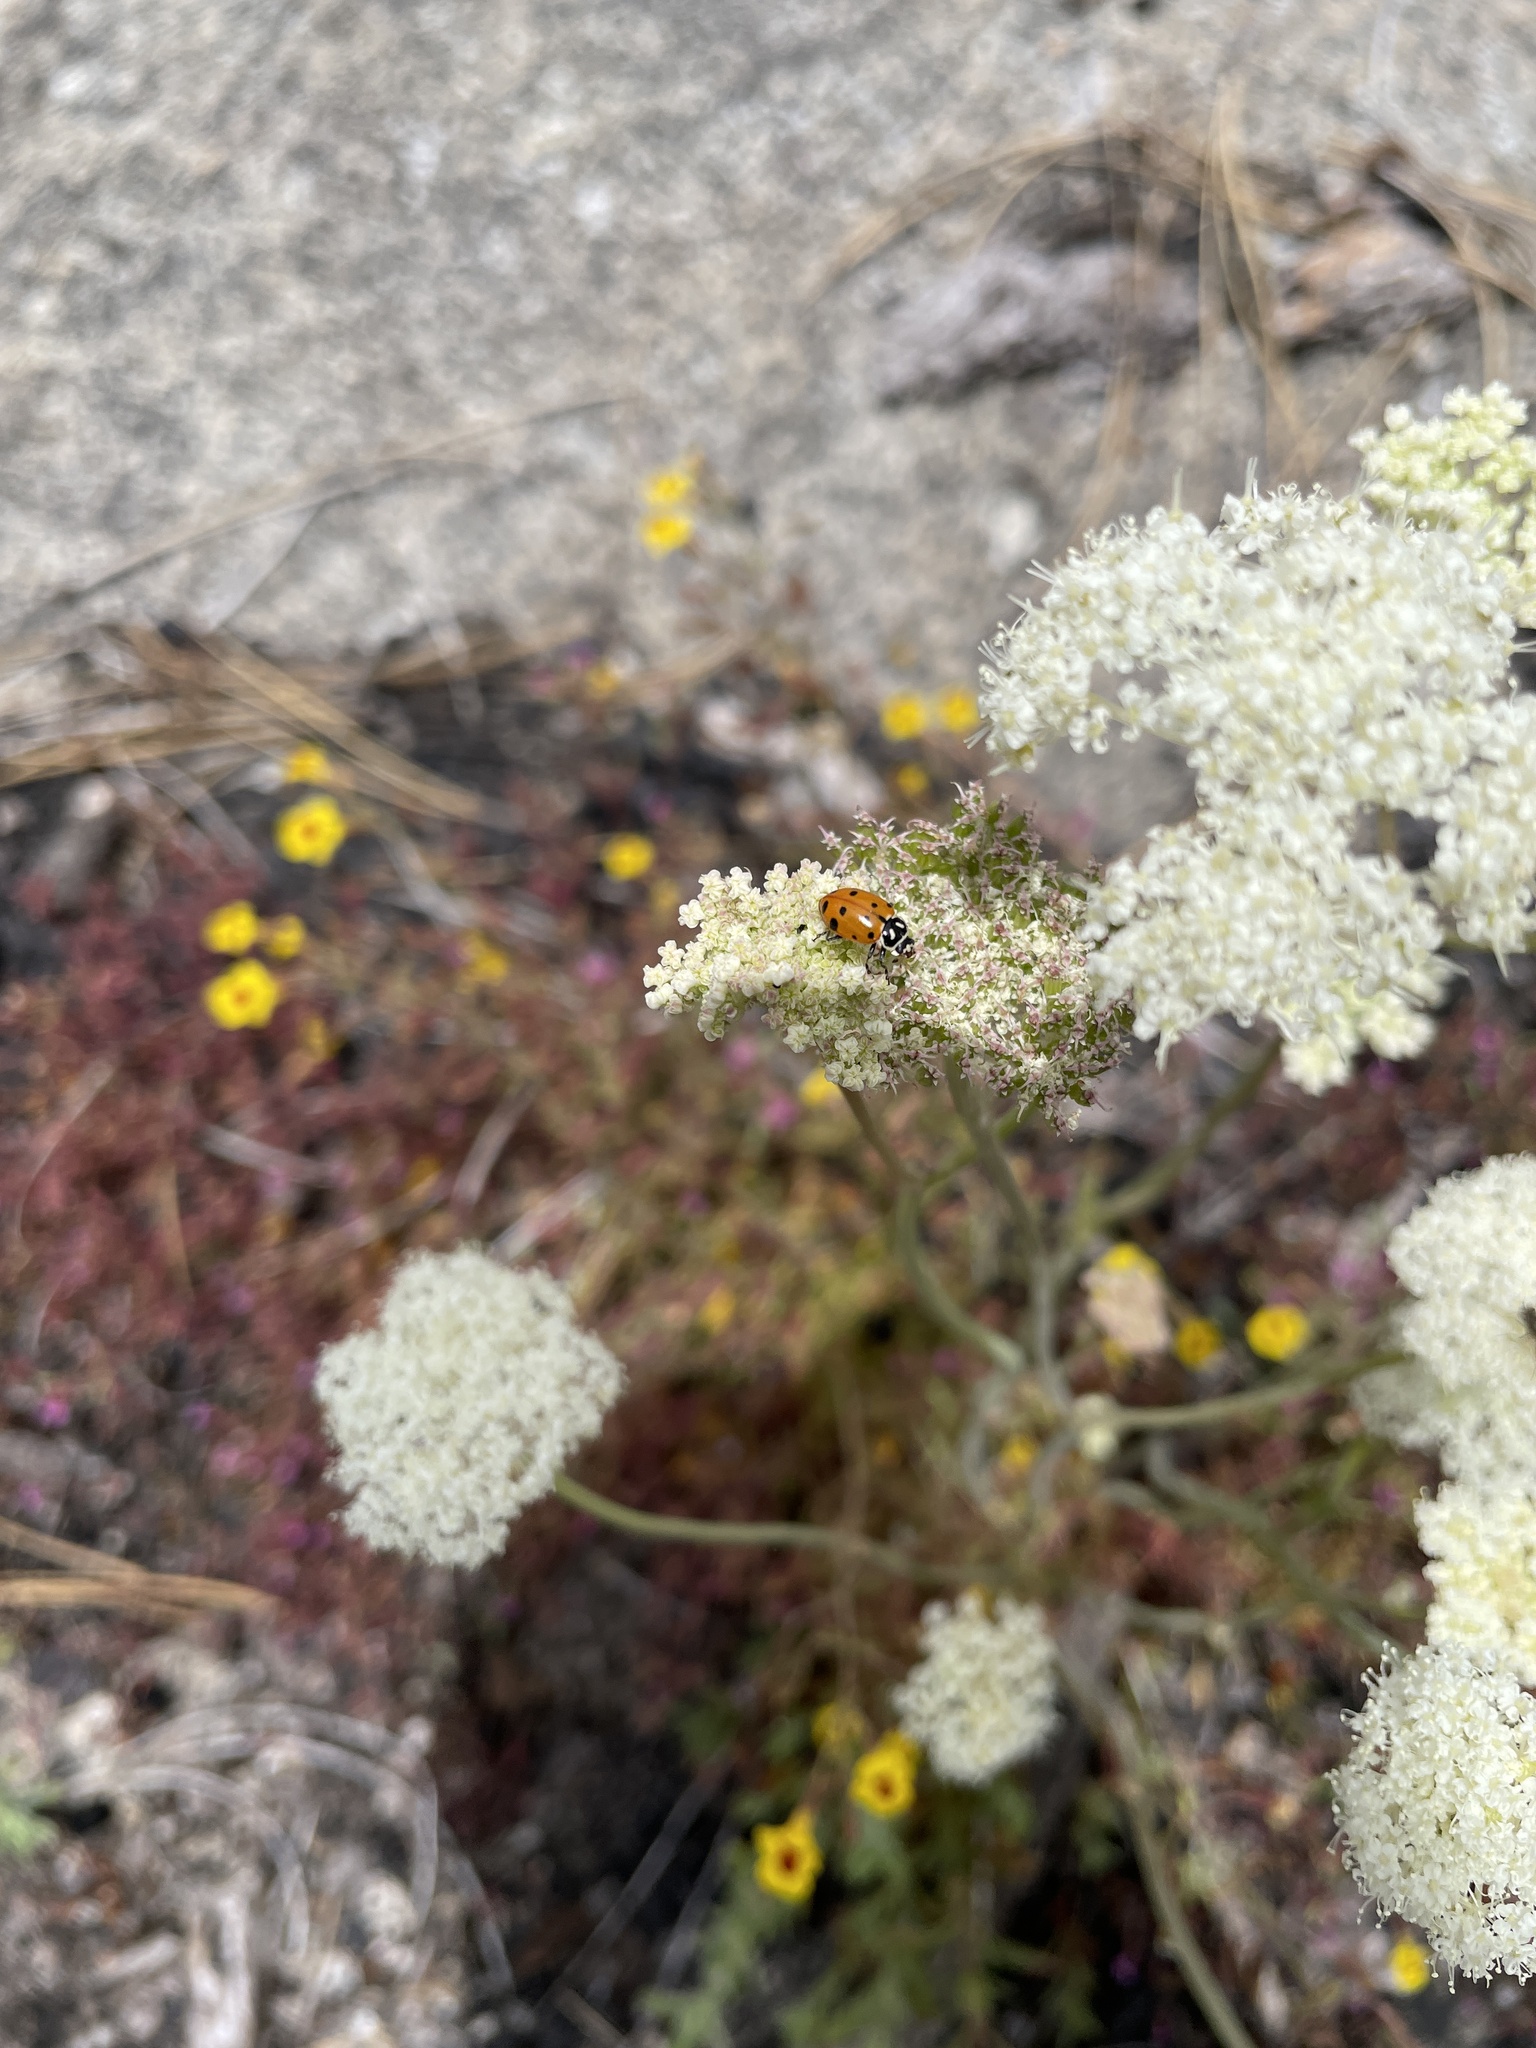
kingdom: Animalia
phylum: Arthropoda
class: Insecta
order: Coleoptera
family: Coccinellidae
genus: Hippodamia
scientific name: Hippodamia convergens
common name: Convergent lady beetle
